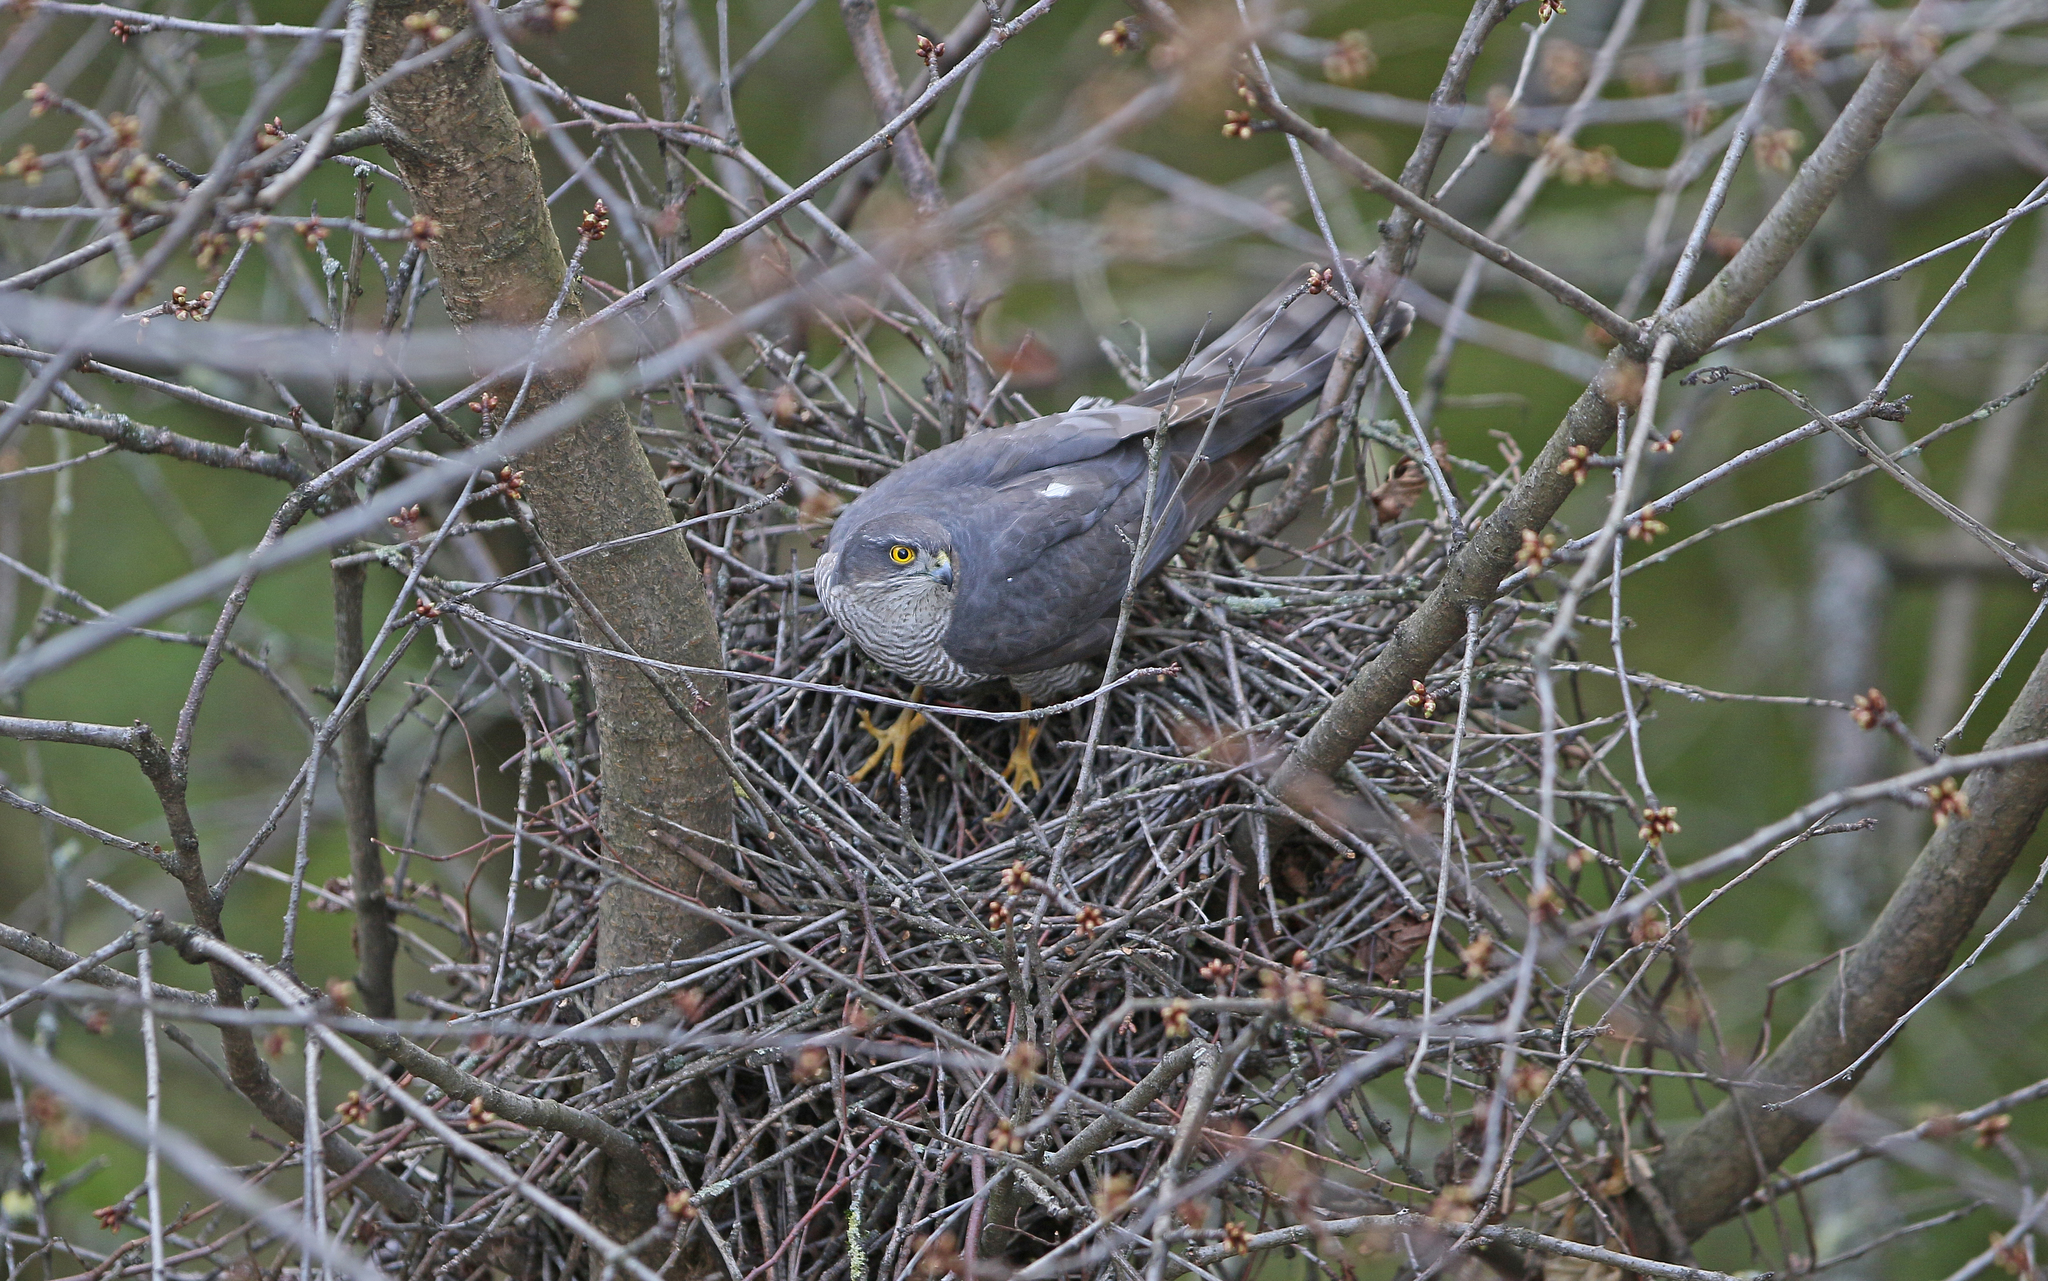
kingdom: Animalia
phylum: Chordata
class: Aves
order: Accipitriformes
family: Accipitridae
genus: Accipiter
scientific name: Accipiter nisus
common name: Eurasian sparrowhawk
